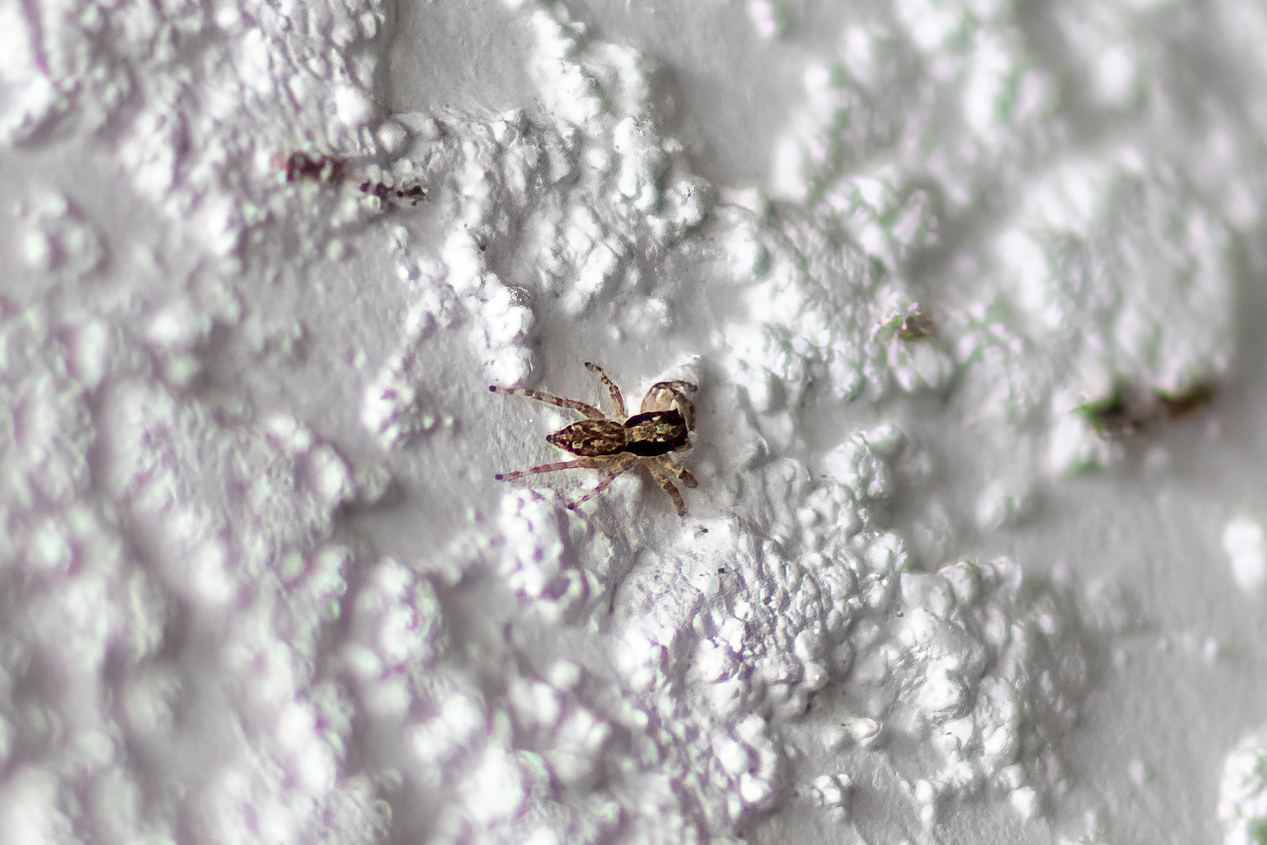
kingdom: Animalia
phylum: Arthropoda
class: Arachnida
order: Araneae
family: Salticidae
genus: Menemerus
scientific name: Menemerus bivittatus
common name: Gray wall jumper
